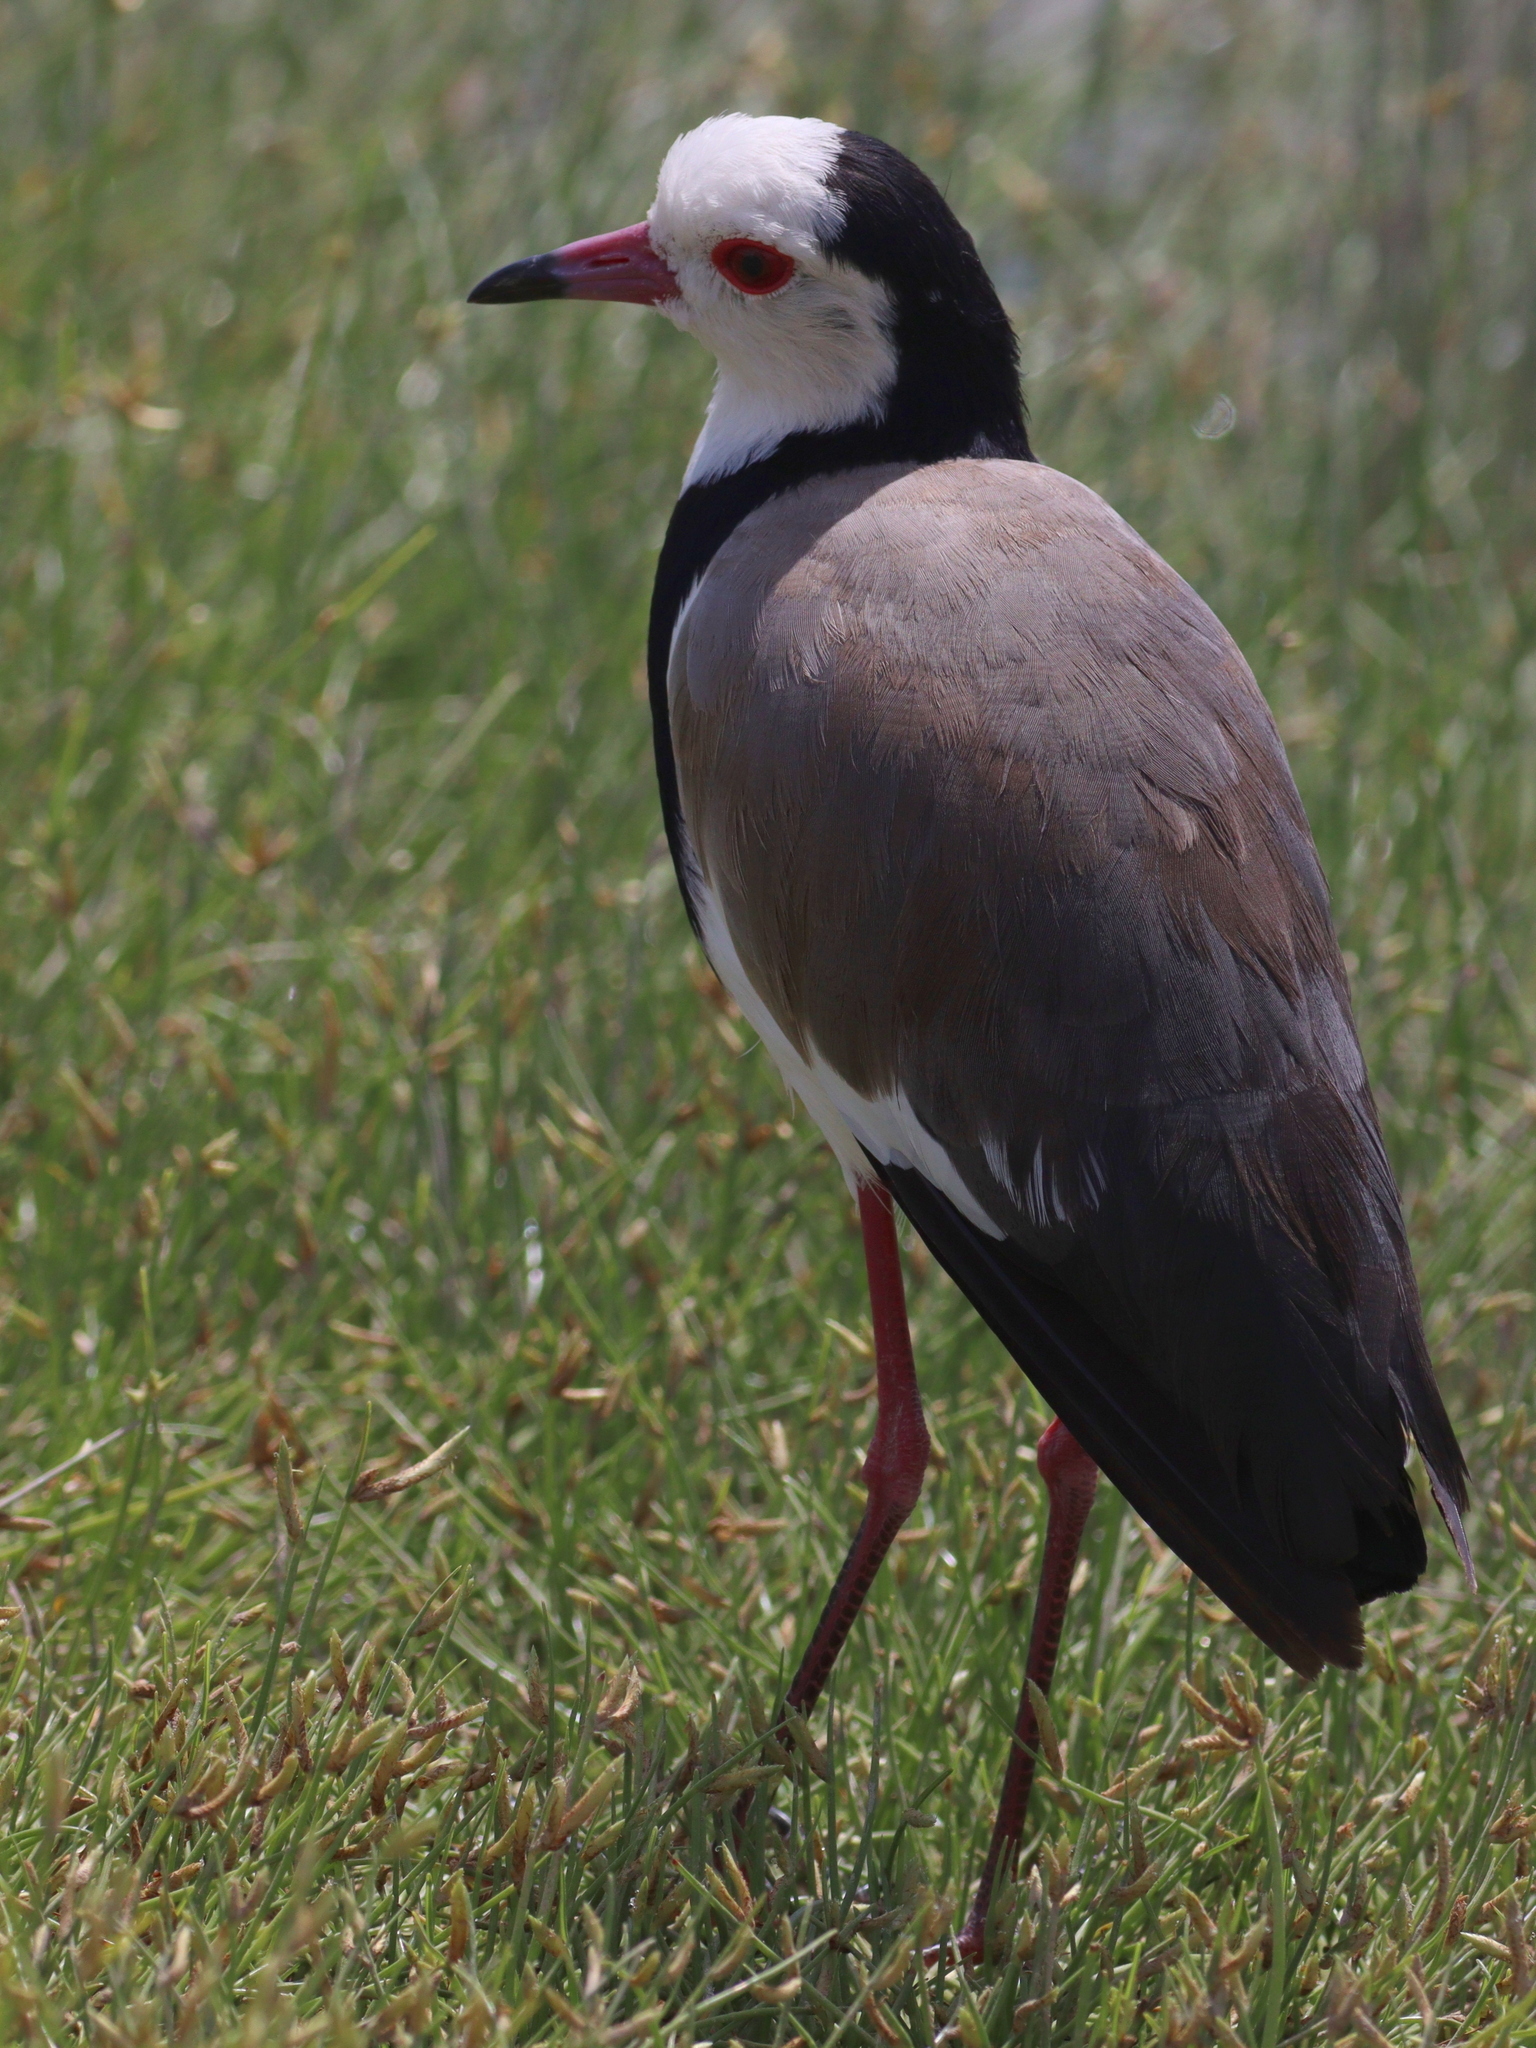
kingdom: Animalia
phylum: Chordata
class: Aves
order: Charadriiformes
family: Charadriidae
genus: Vanellus
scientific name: Vanellus crassirostris
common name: Long-toed lapwing
